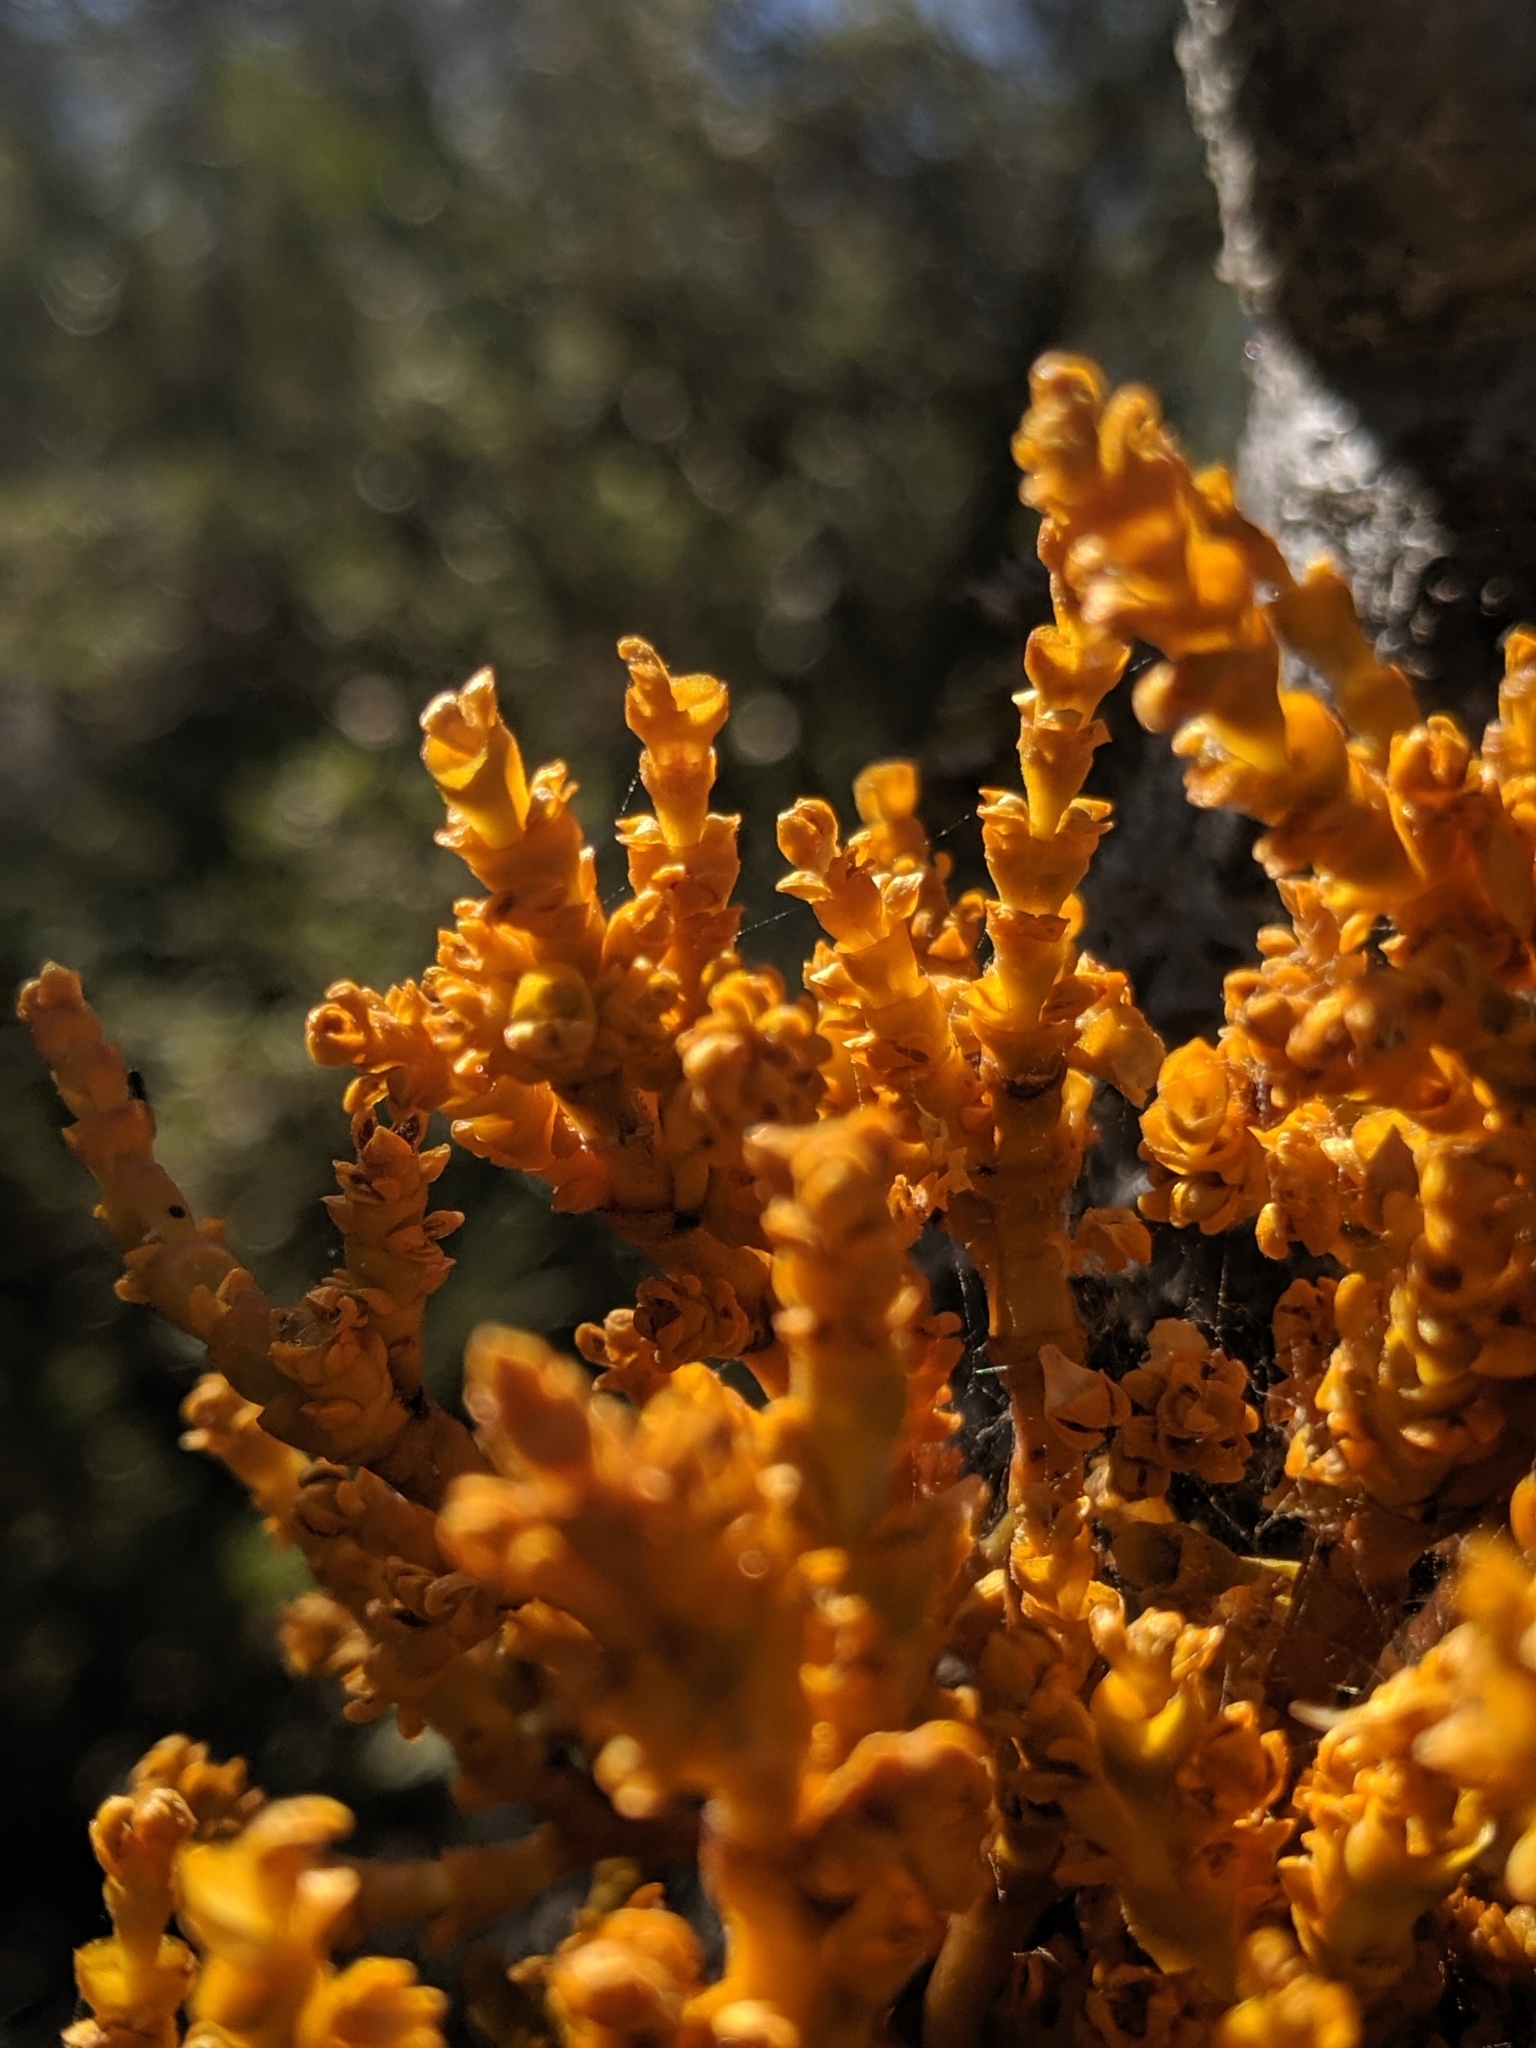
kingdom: Plantae
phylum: Tracheophyta
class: Magnoliopsida
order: Santalales
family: Viscaceae
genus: Arceuthobium
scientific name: Arceuthobium campylopodum
